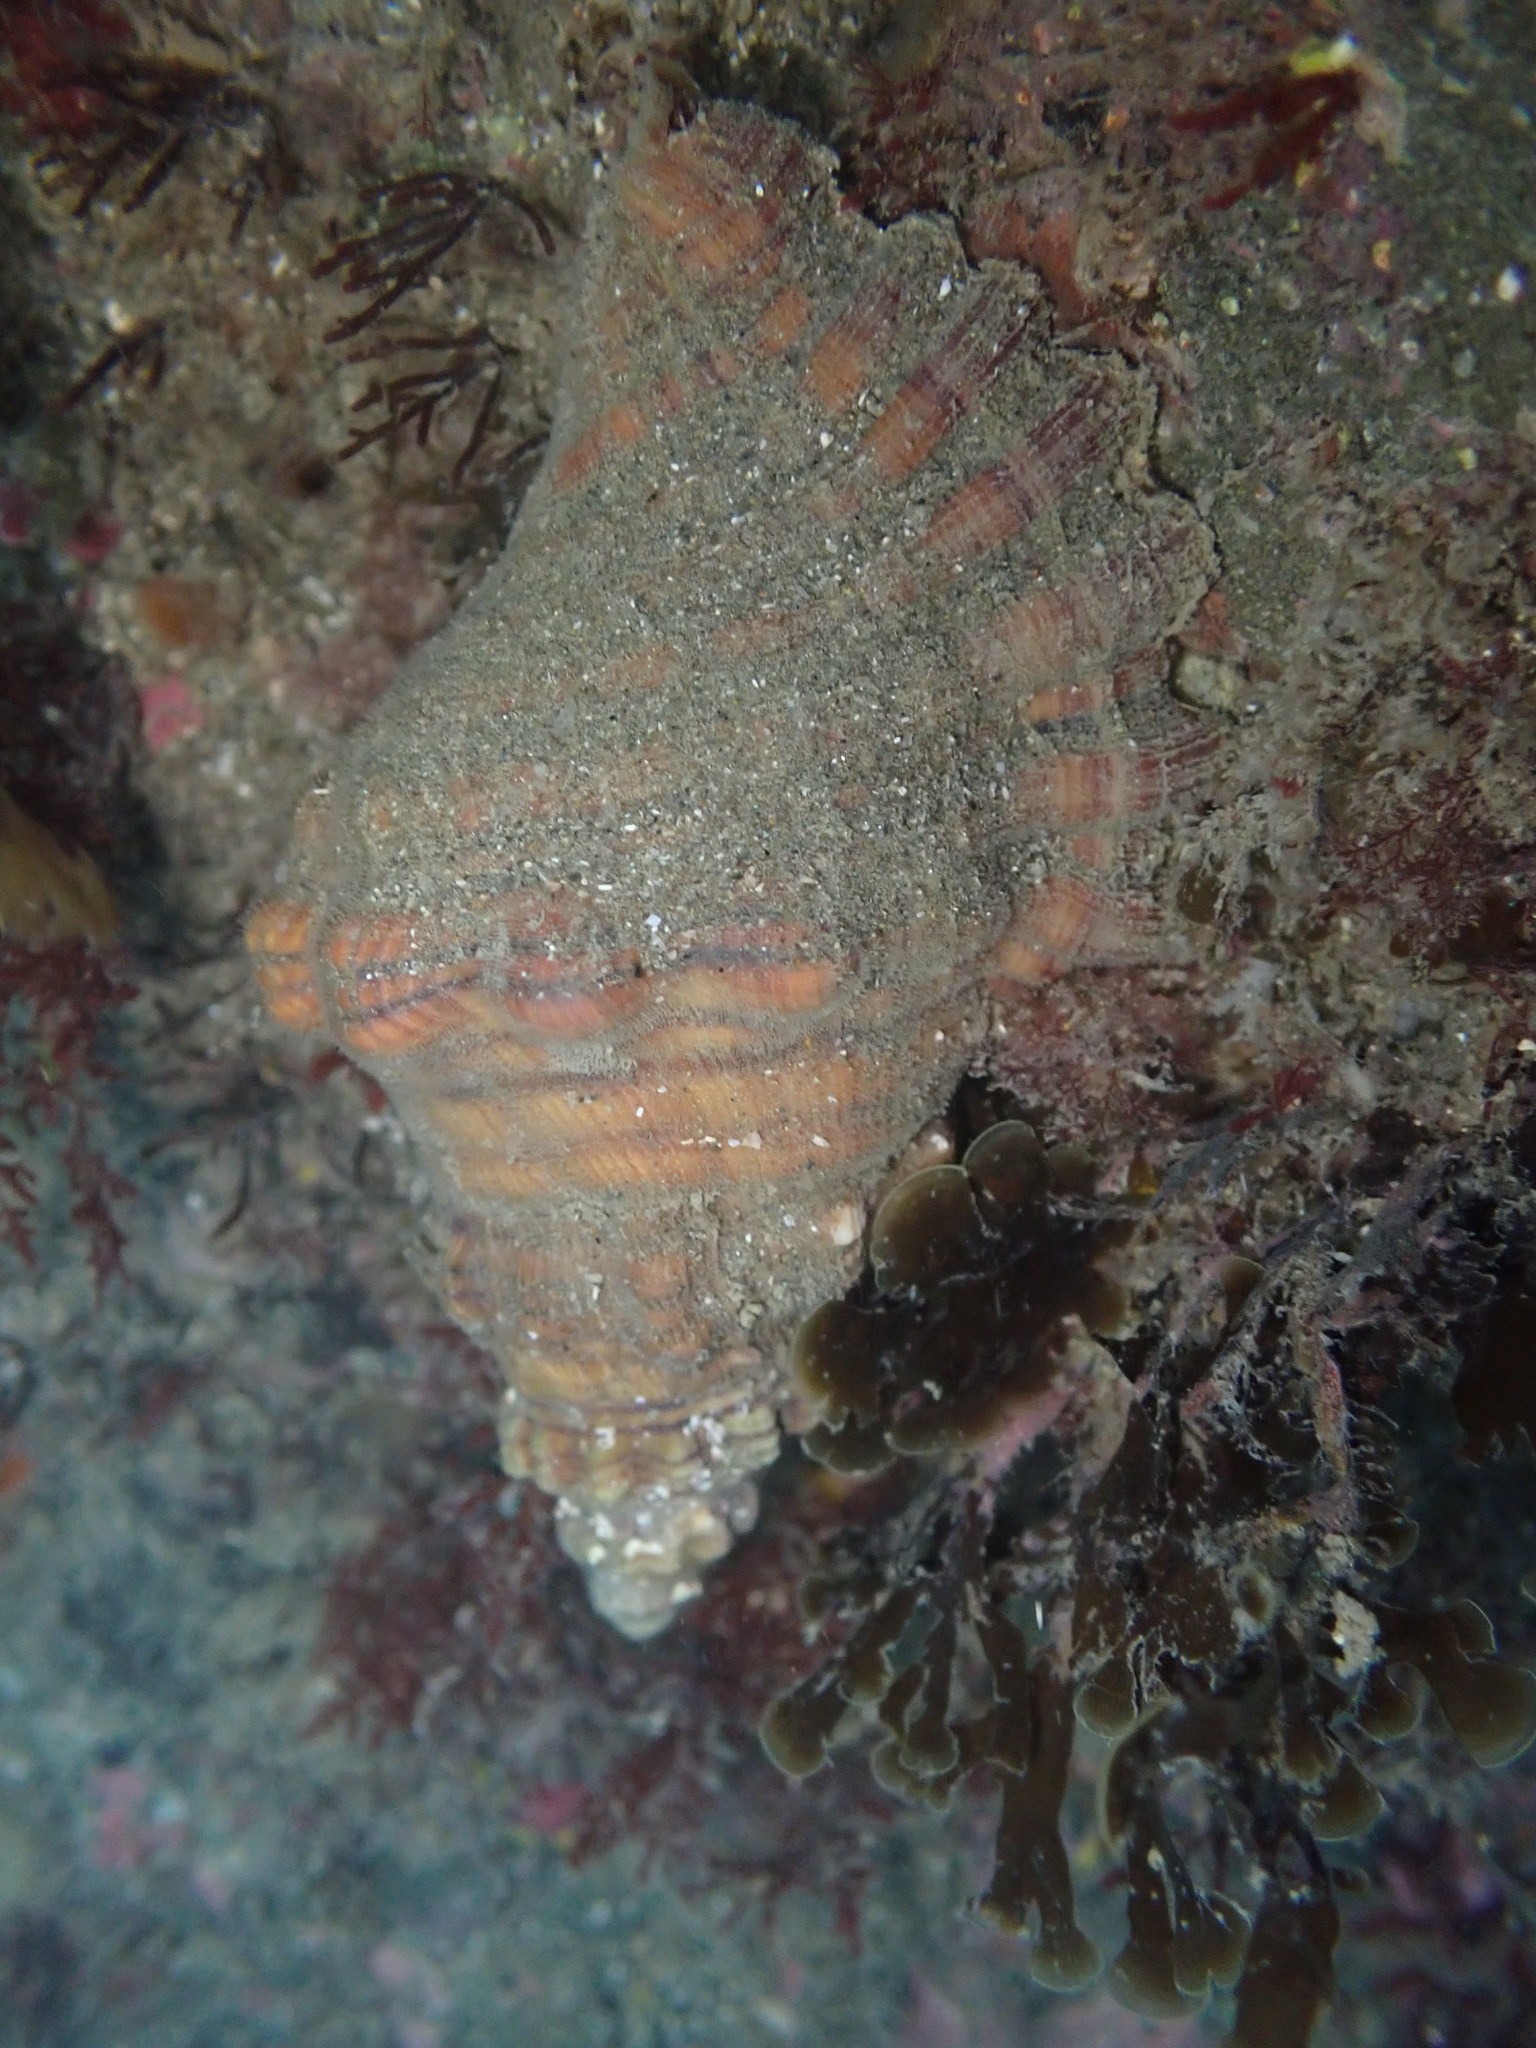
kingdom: Animalia
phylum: Mollusca
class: Gastropoda
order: Littorinimorpha
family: Cymatiidae
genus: Cabestana
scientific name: Cabestana spengleri
